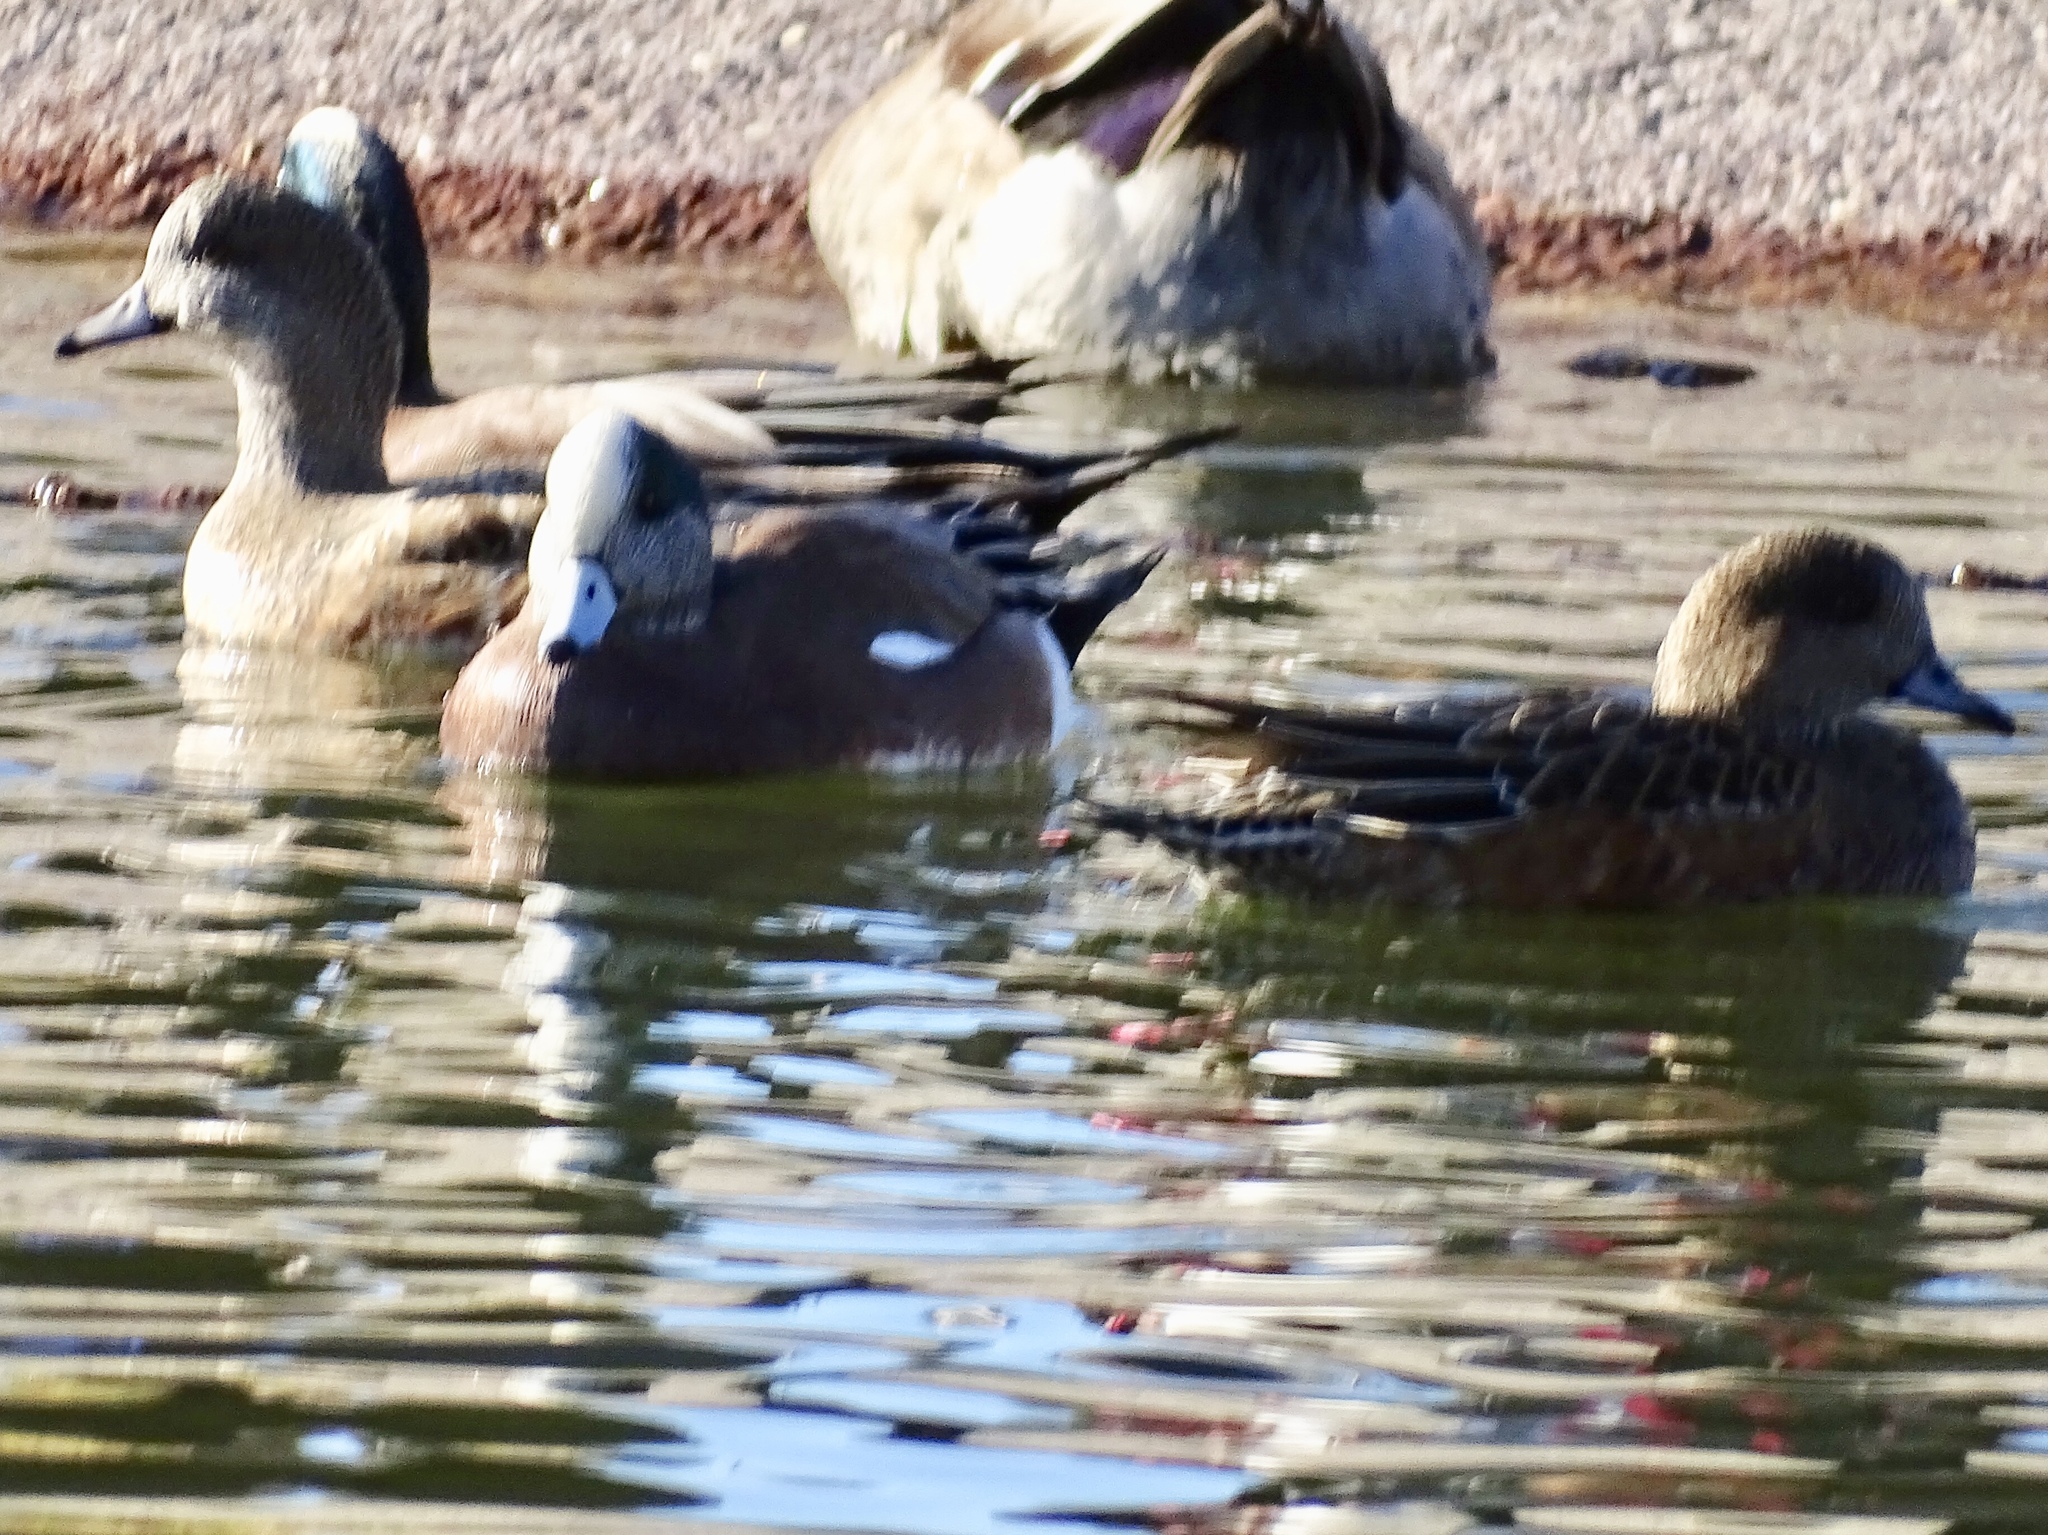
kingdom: Animalia
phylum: Chordata
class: Aves
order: Anseriformes
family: Anatidae
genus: Mareca
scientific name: Mareca americana
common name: American wigeon
